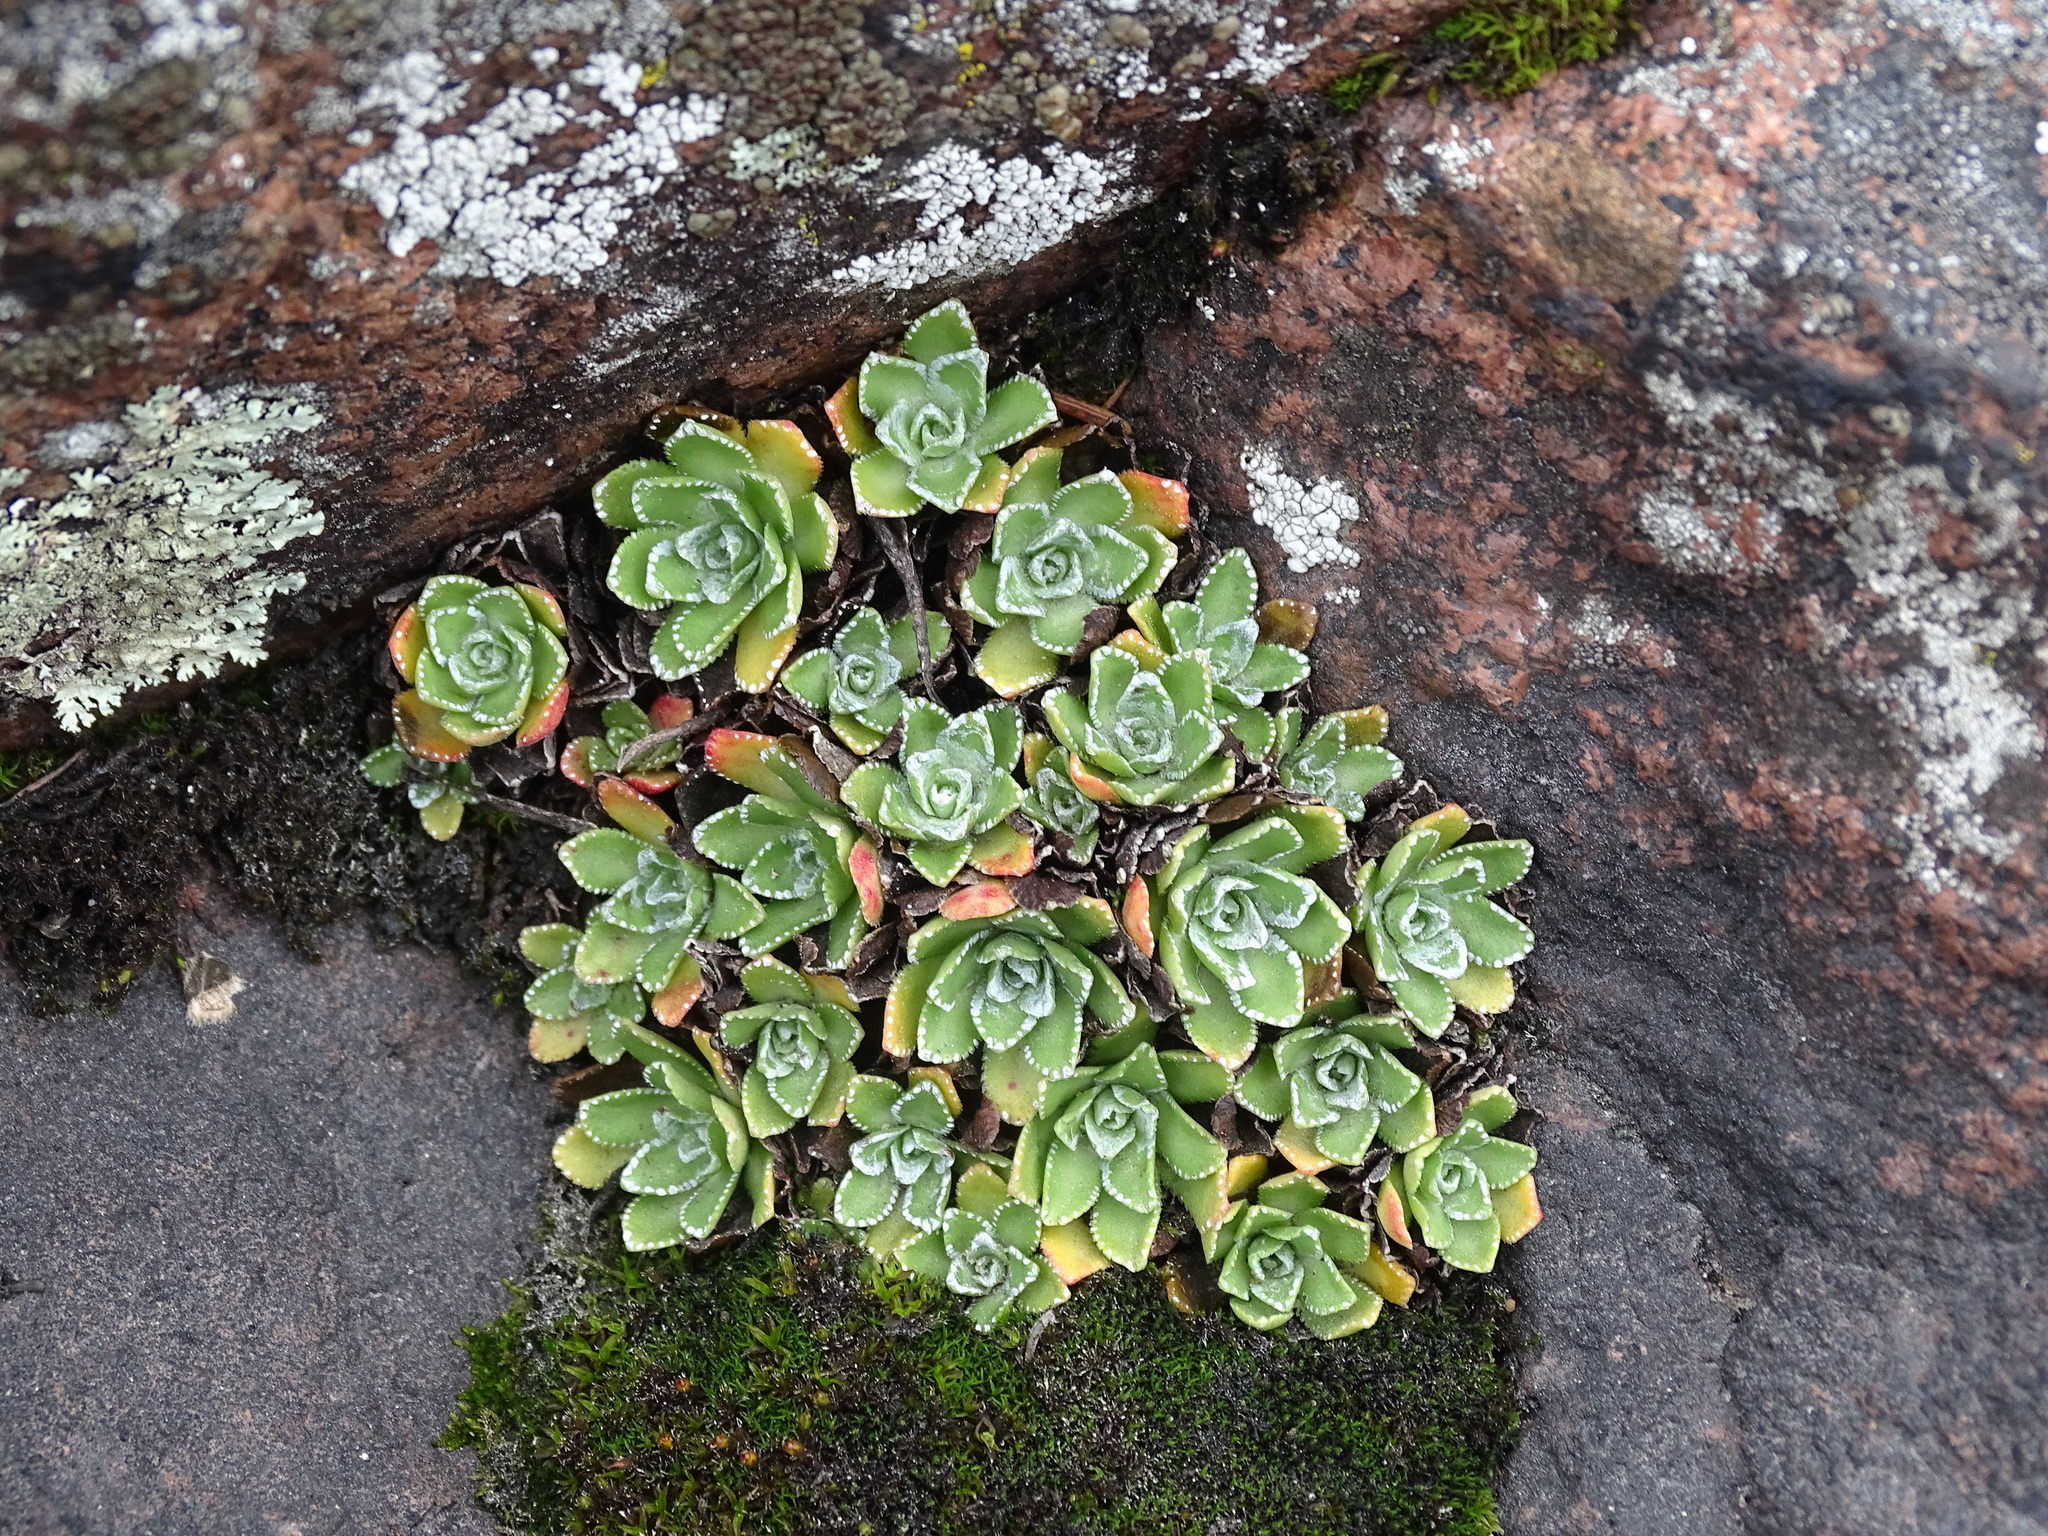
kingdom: Plantae
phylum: Tracheophyta
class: Magnoliopsida
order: Saxifragales
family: Saxifragaceae
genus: Saxifraga
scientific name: Saxifraga paniculata
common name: Livelong saxifrage
